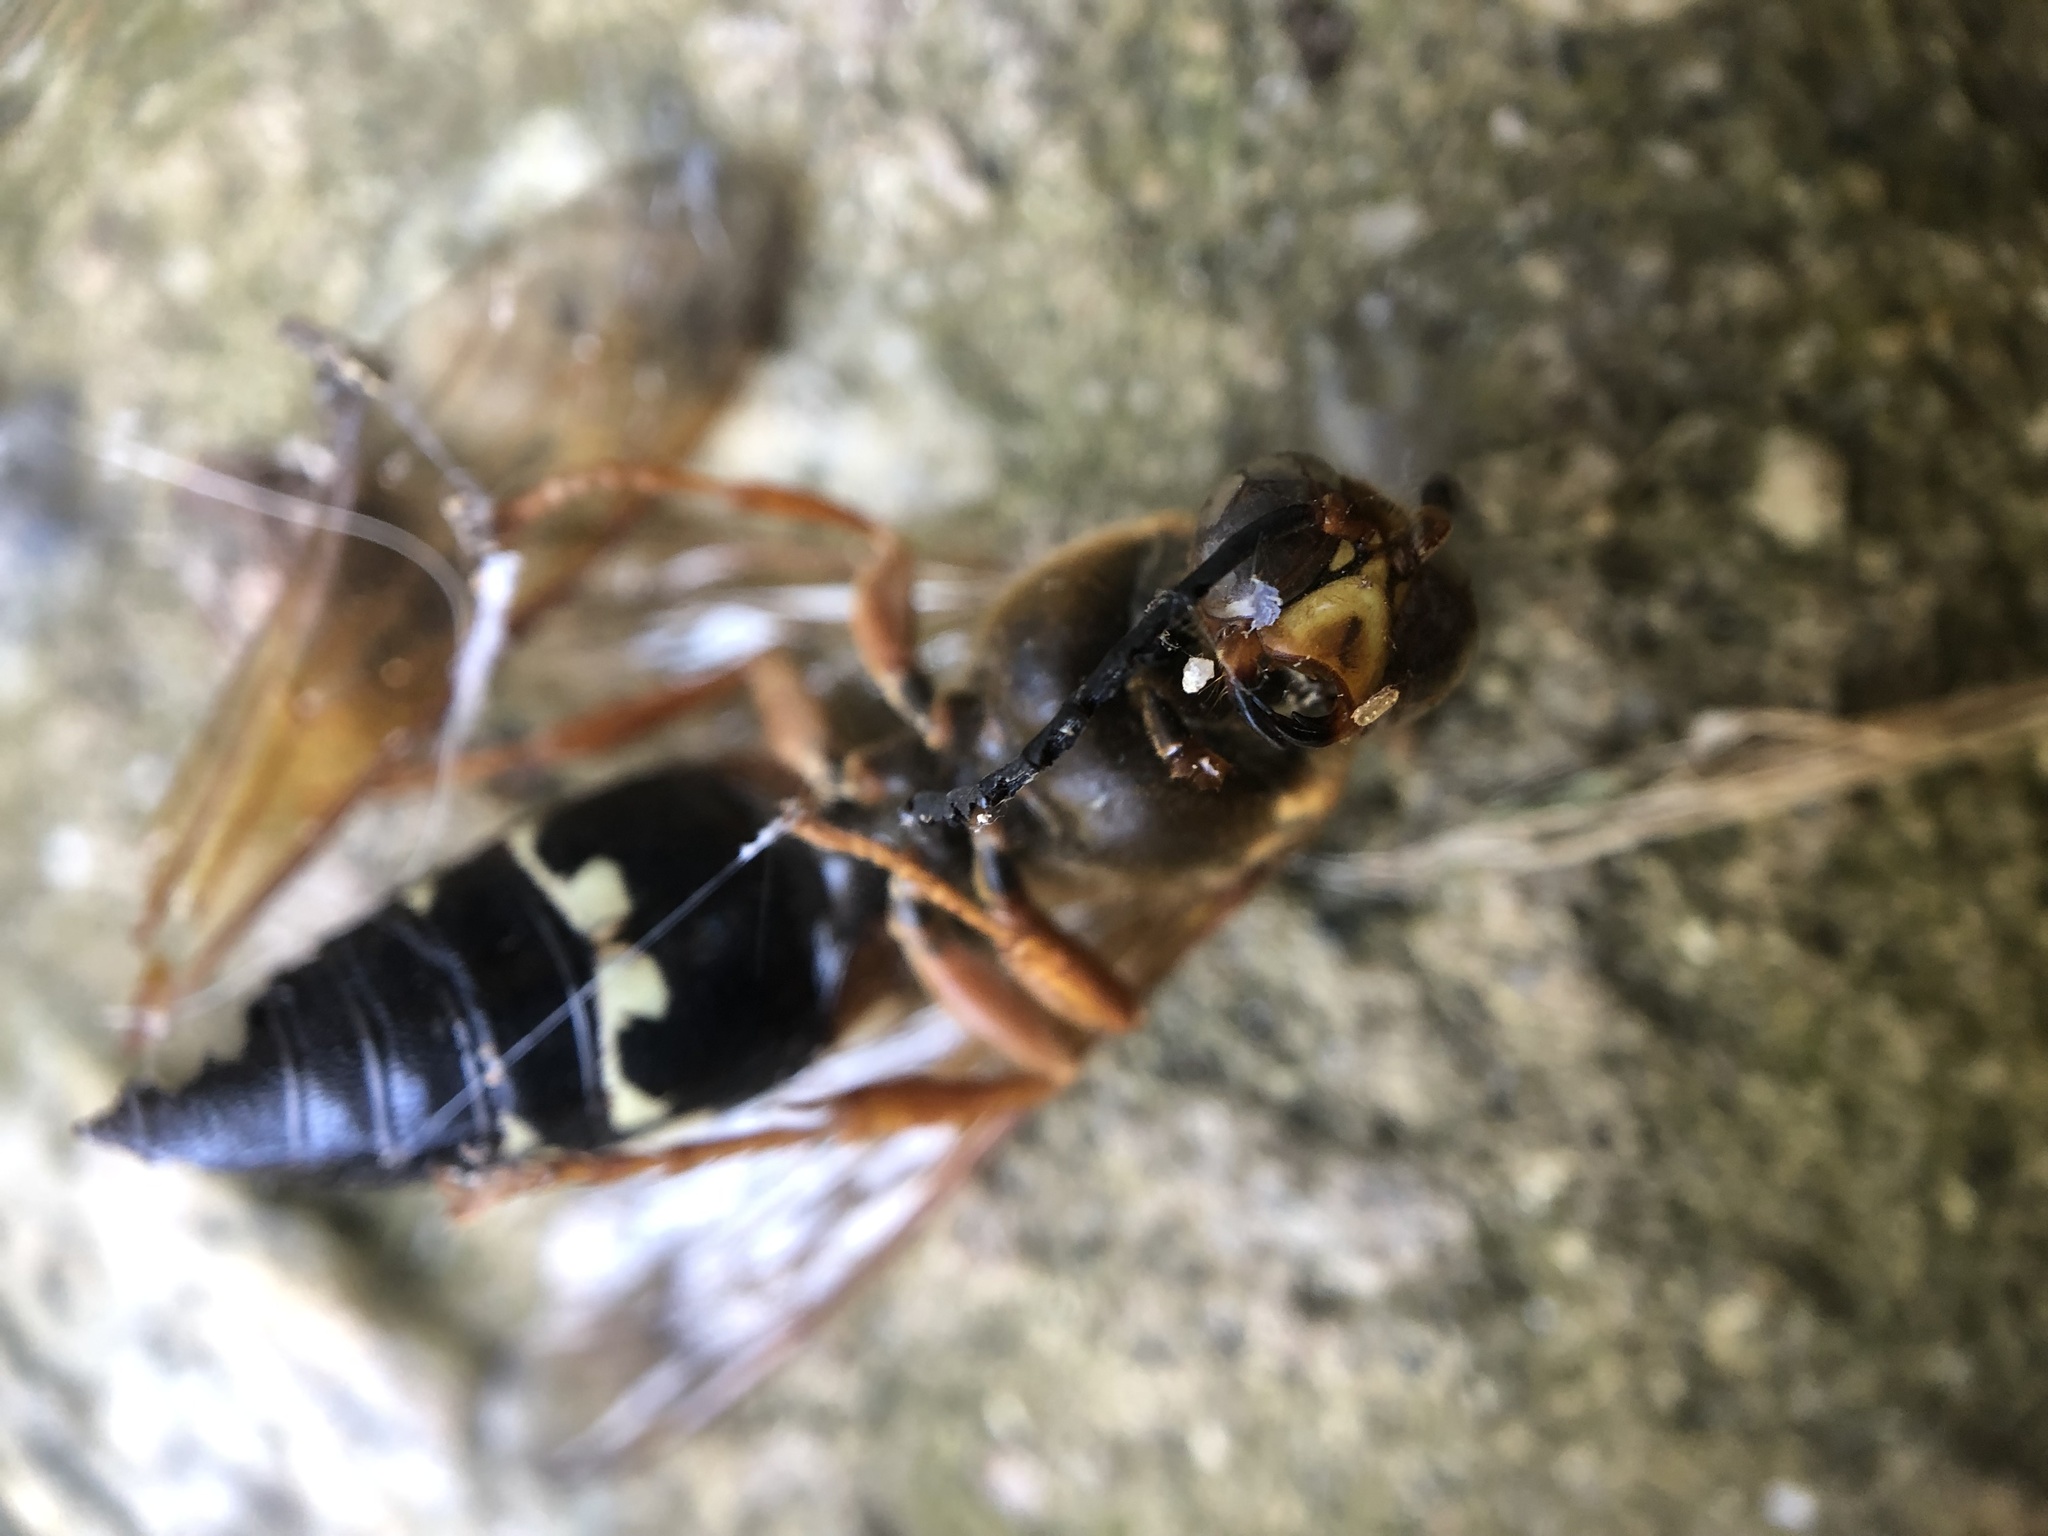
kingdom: Animalia
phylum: Arthropoda
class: Insecta
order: Hymenoptera
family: Crabronidae
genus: Sphecius
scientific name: Sphecius speciosus
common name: Cicada killer
